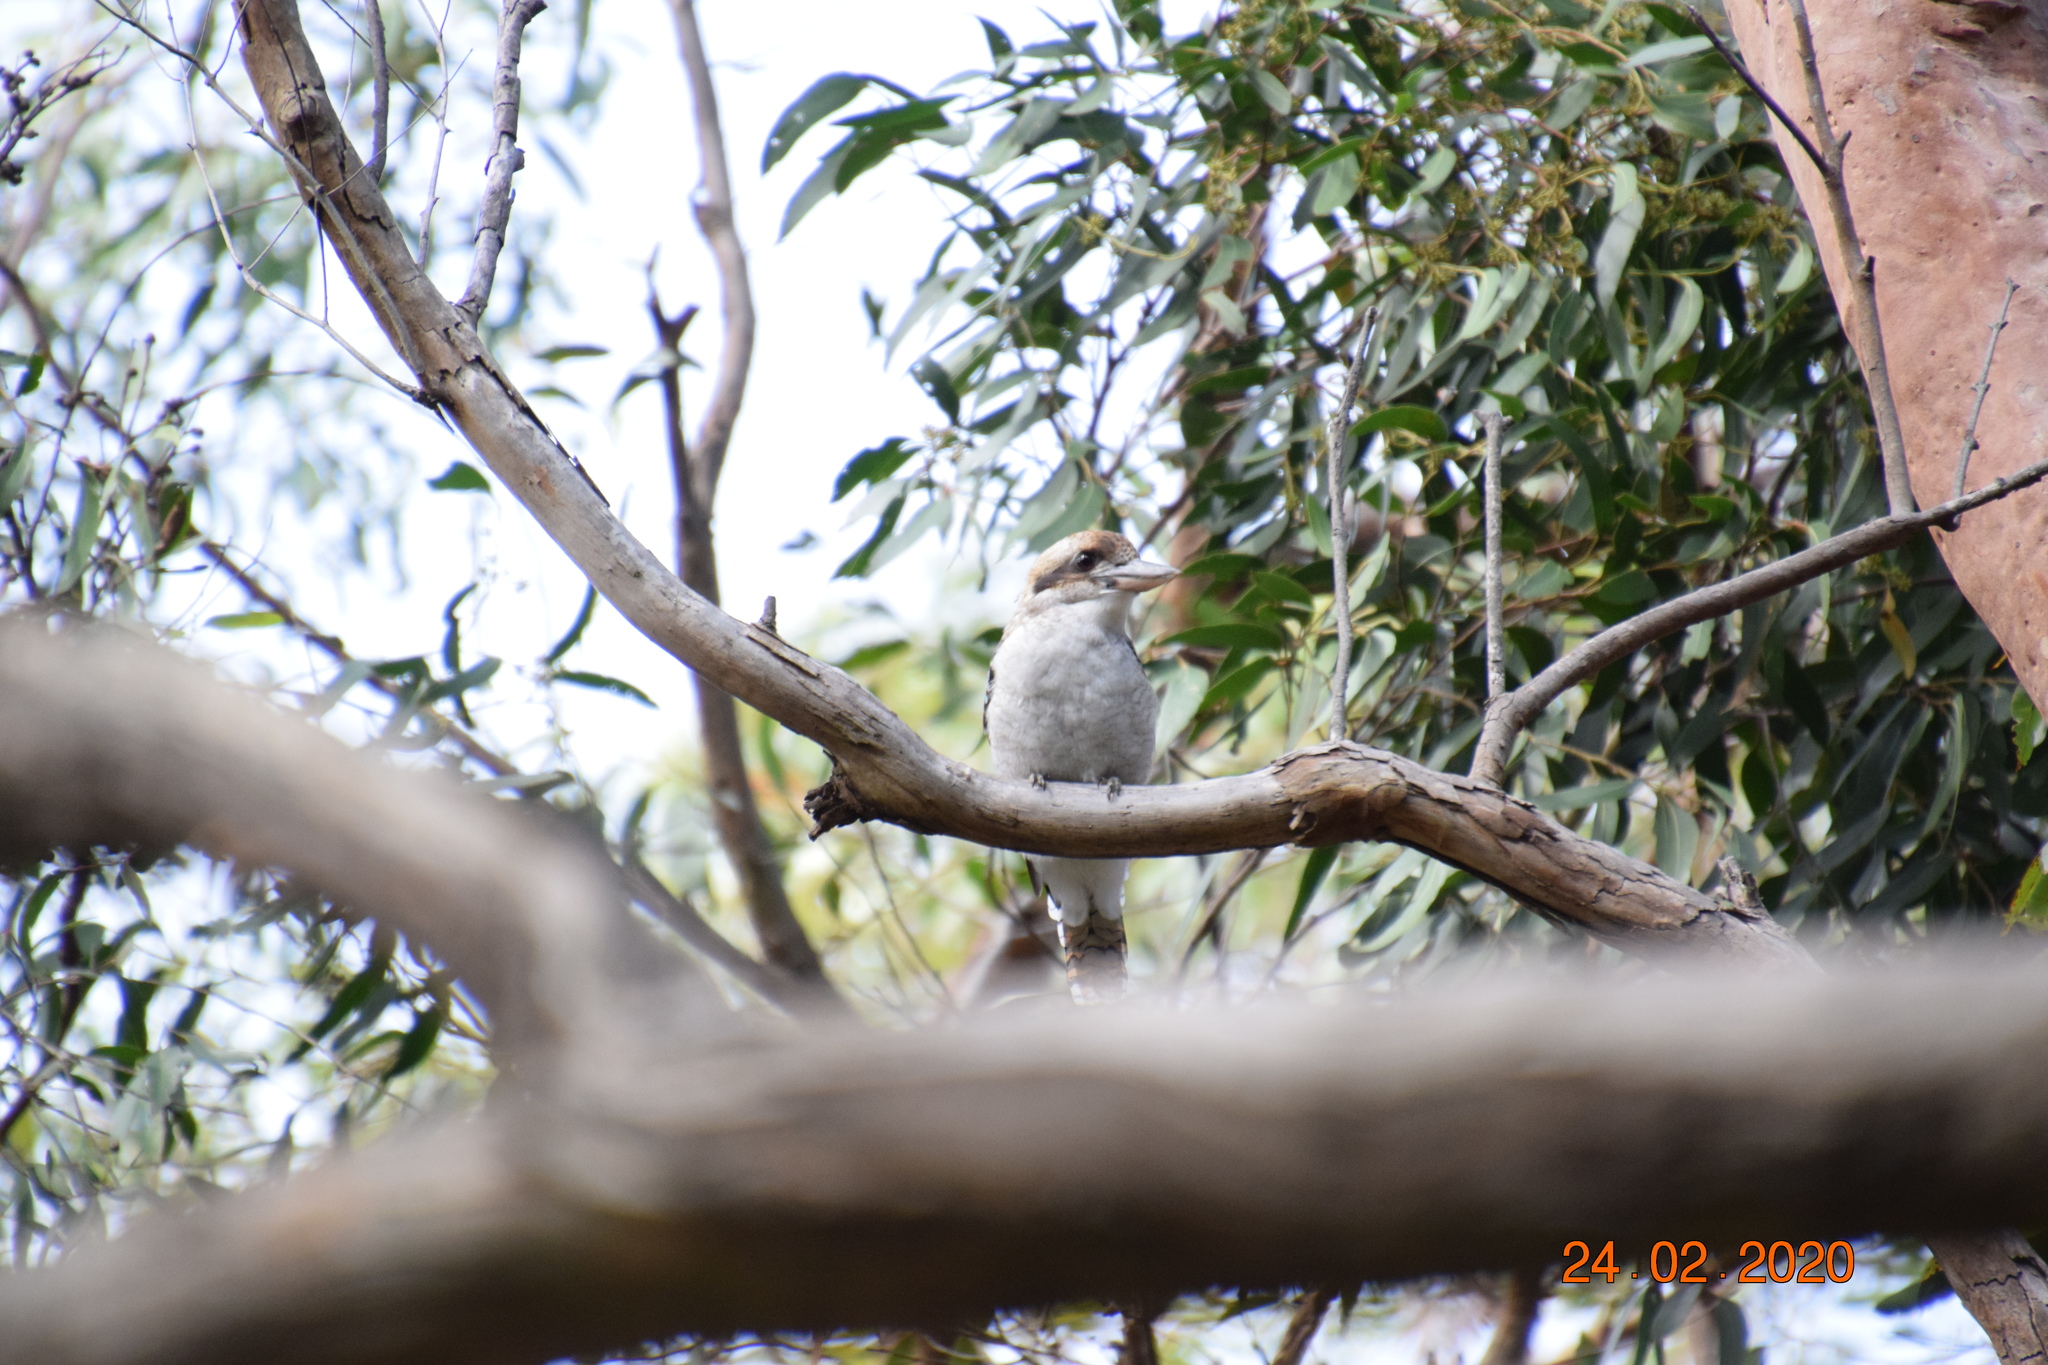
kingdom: Animalia
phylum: Chordata
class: Aves
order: Coraciiformes
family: Alcedinidae
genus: Dacelo
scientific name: Dacelo novaeguineae
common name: Laughing kookaburra
